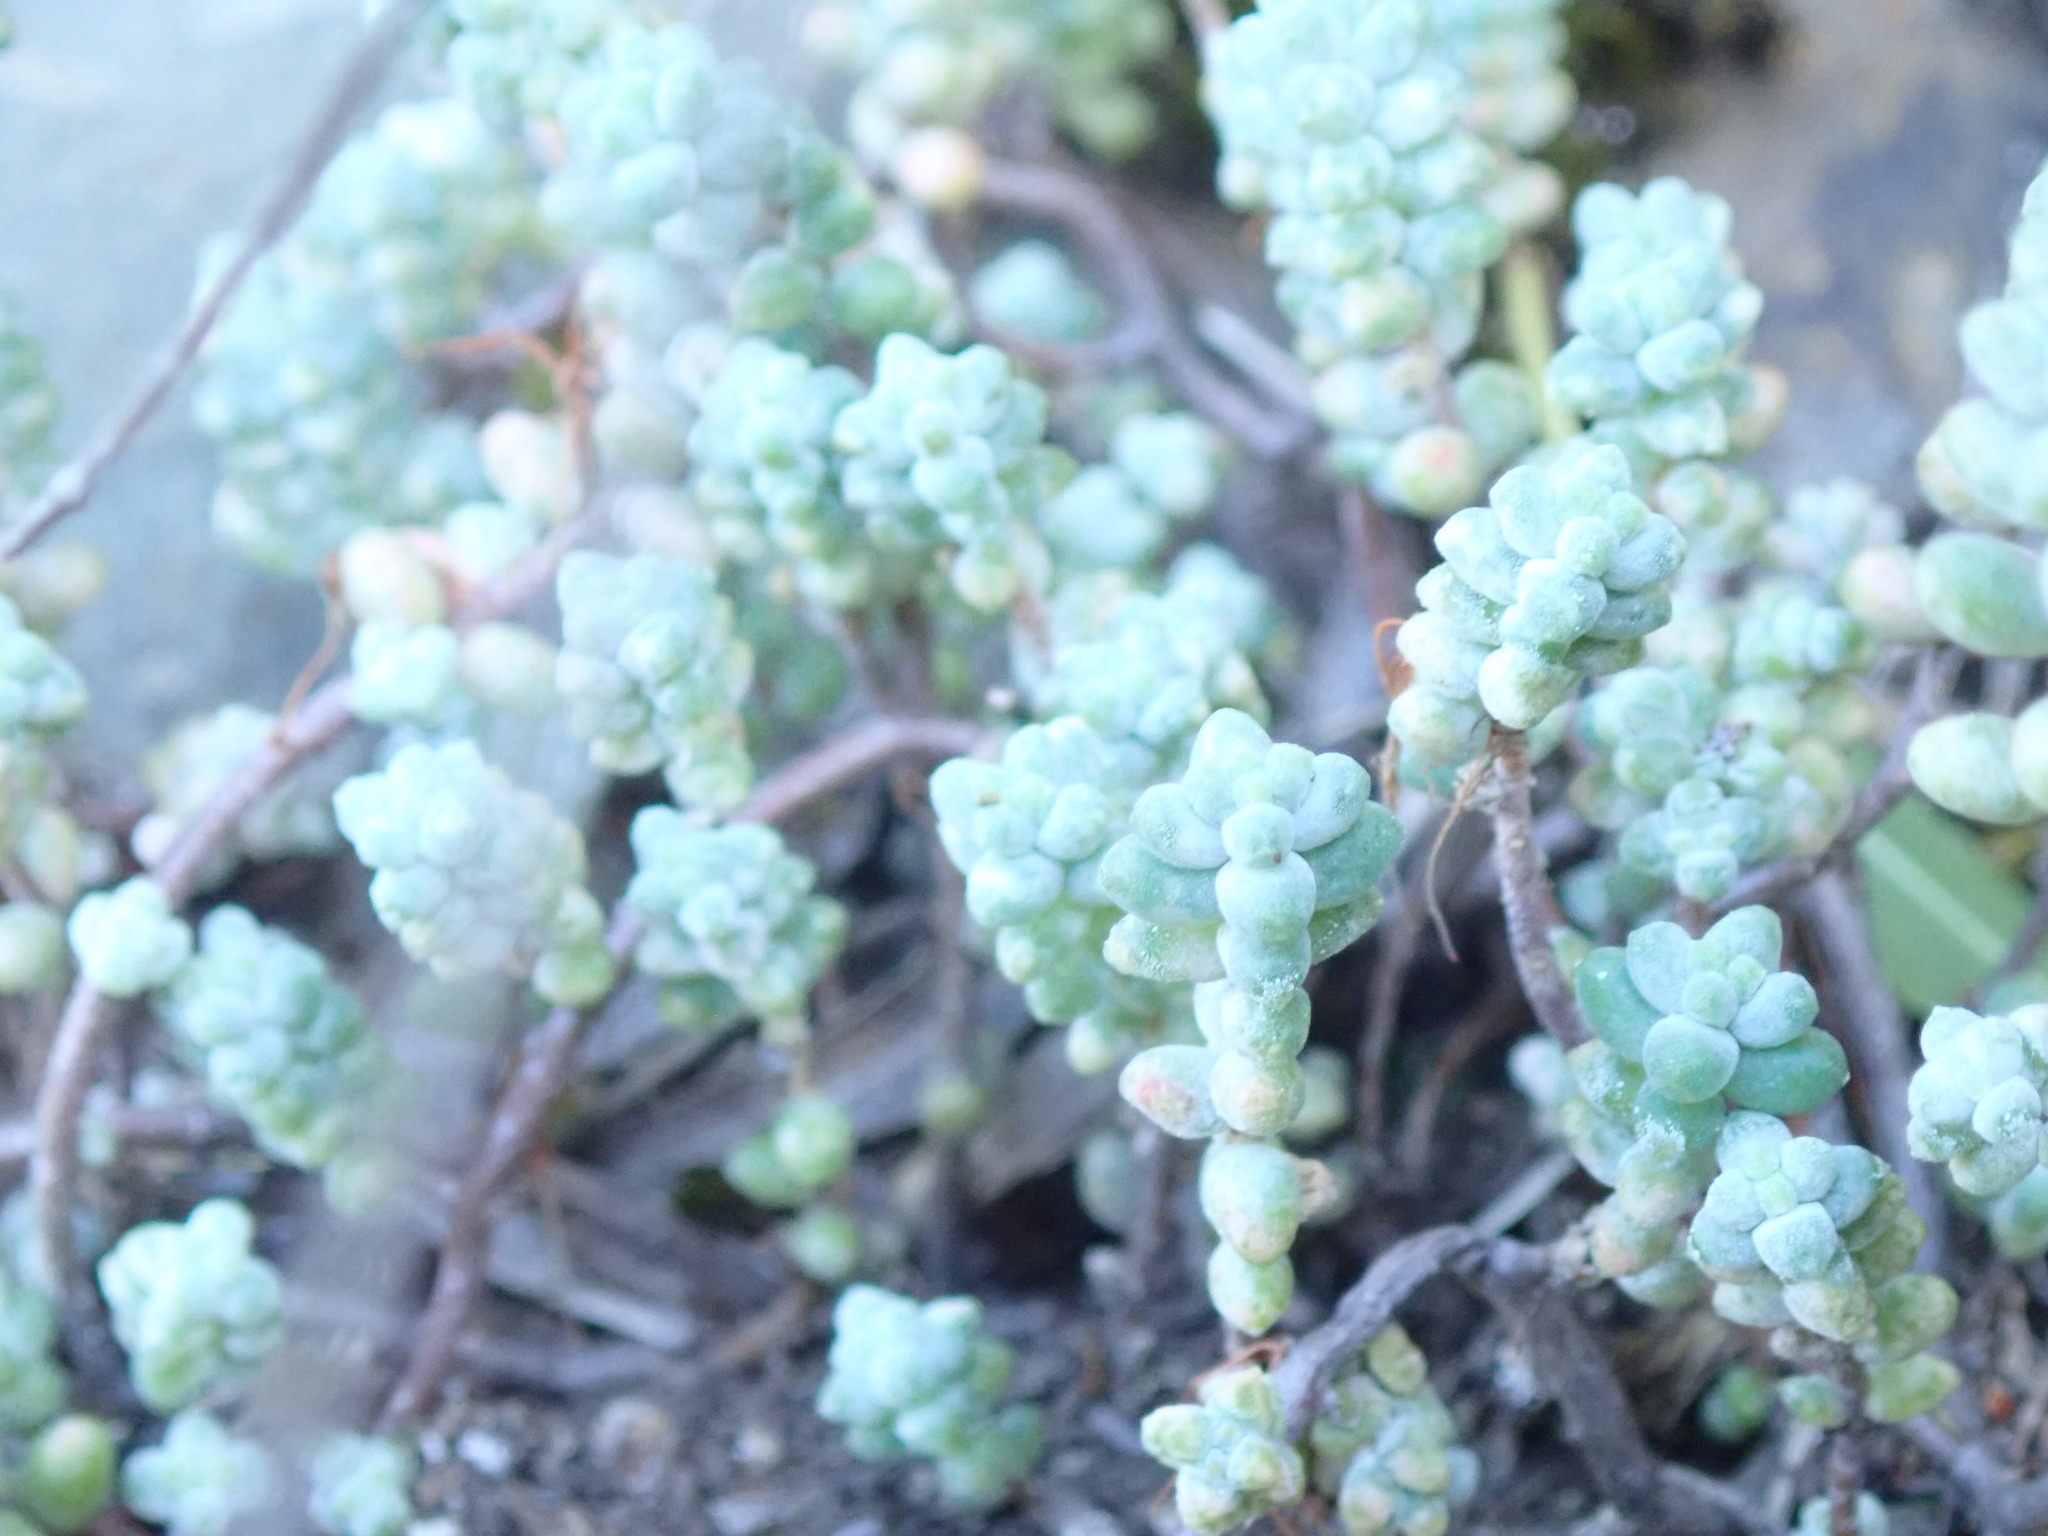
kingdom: Plantae
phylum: Tracheophyta
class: Magnoliopsida
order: Saxifragales
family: Crassulaceae
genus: Sedum
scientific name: Sedum brevifolium
